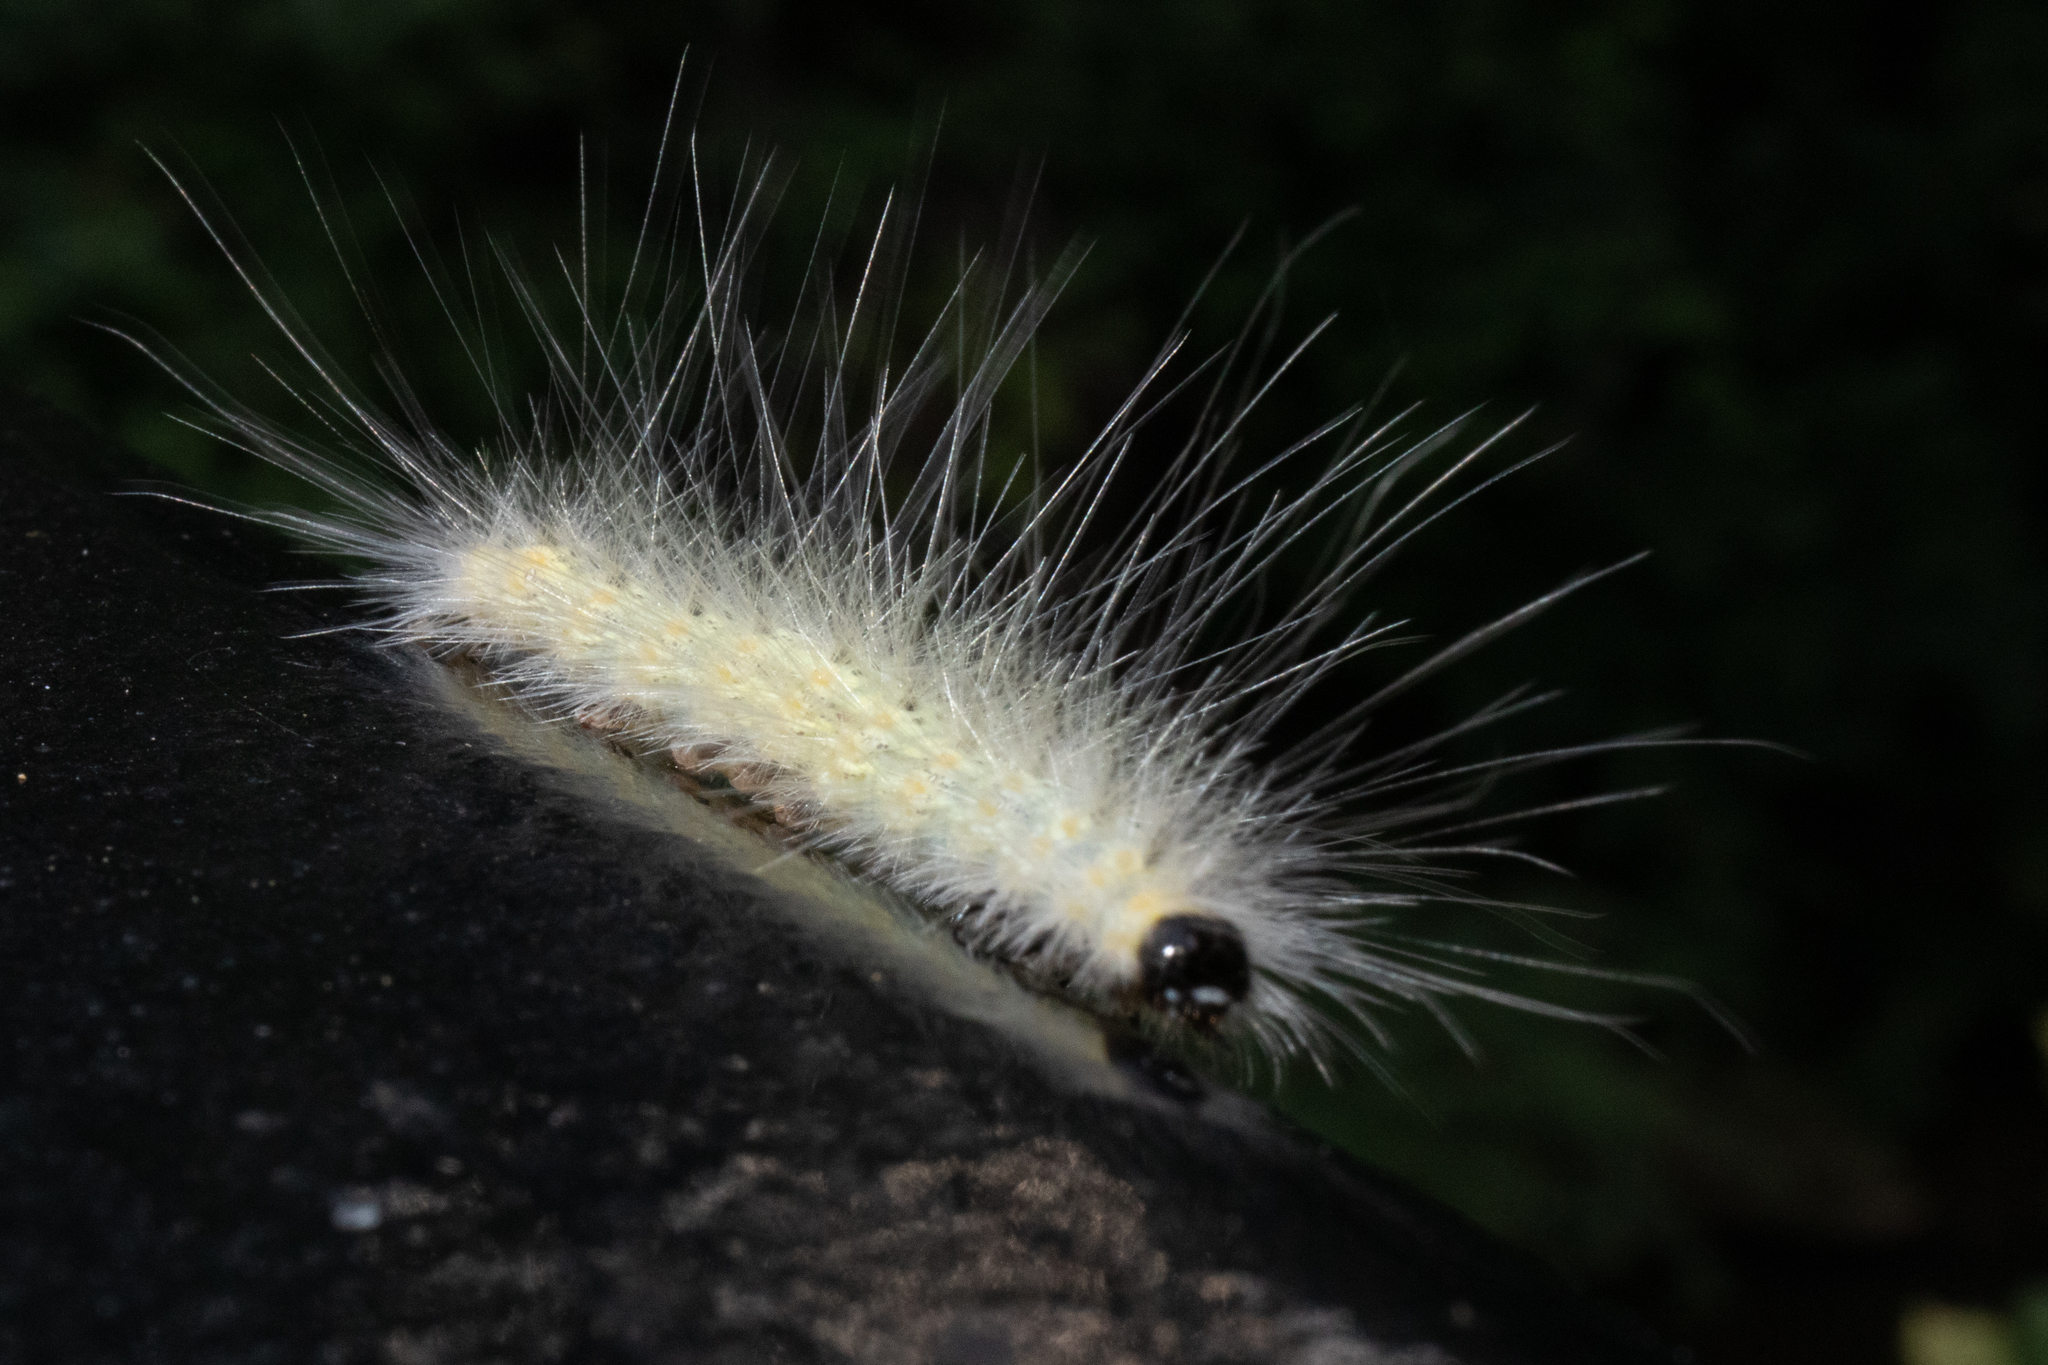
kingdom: Animalia
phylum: Arthropoda
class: Insecta
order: Lepidoptera
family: Erebidae
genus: Hyphantria
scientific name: Hyphantria cunea
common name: American white moth
